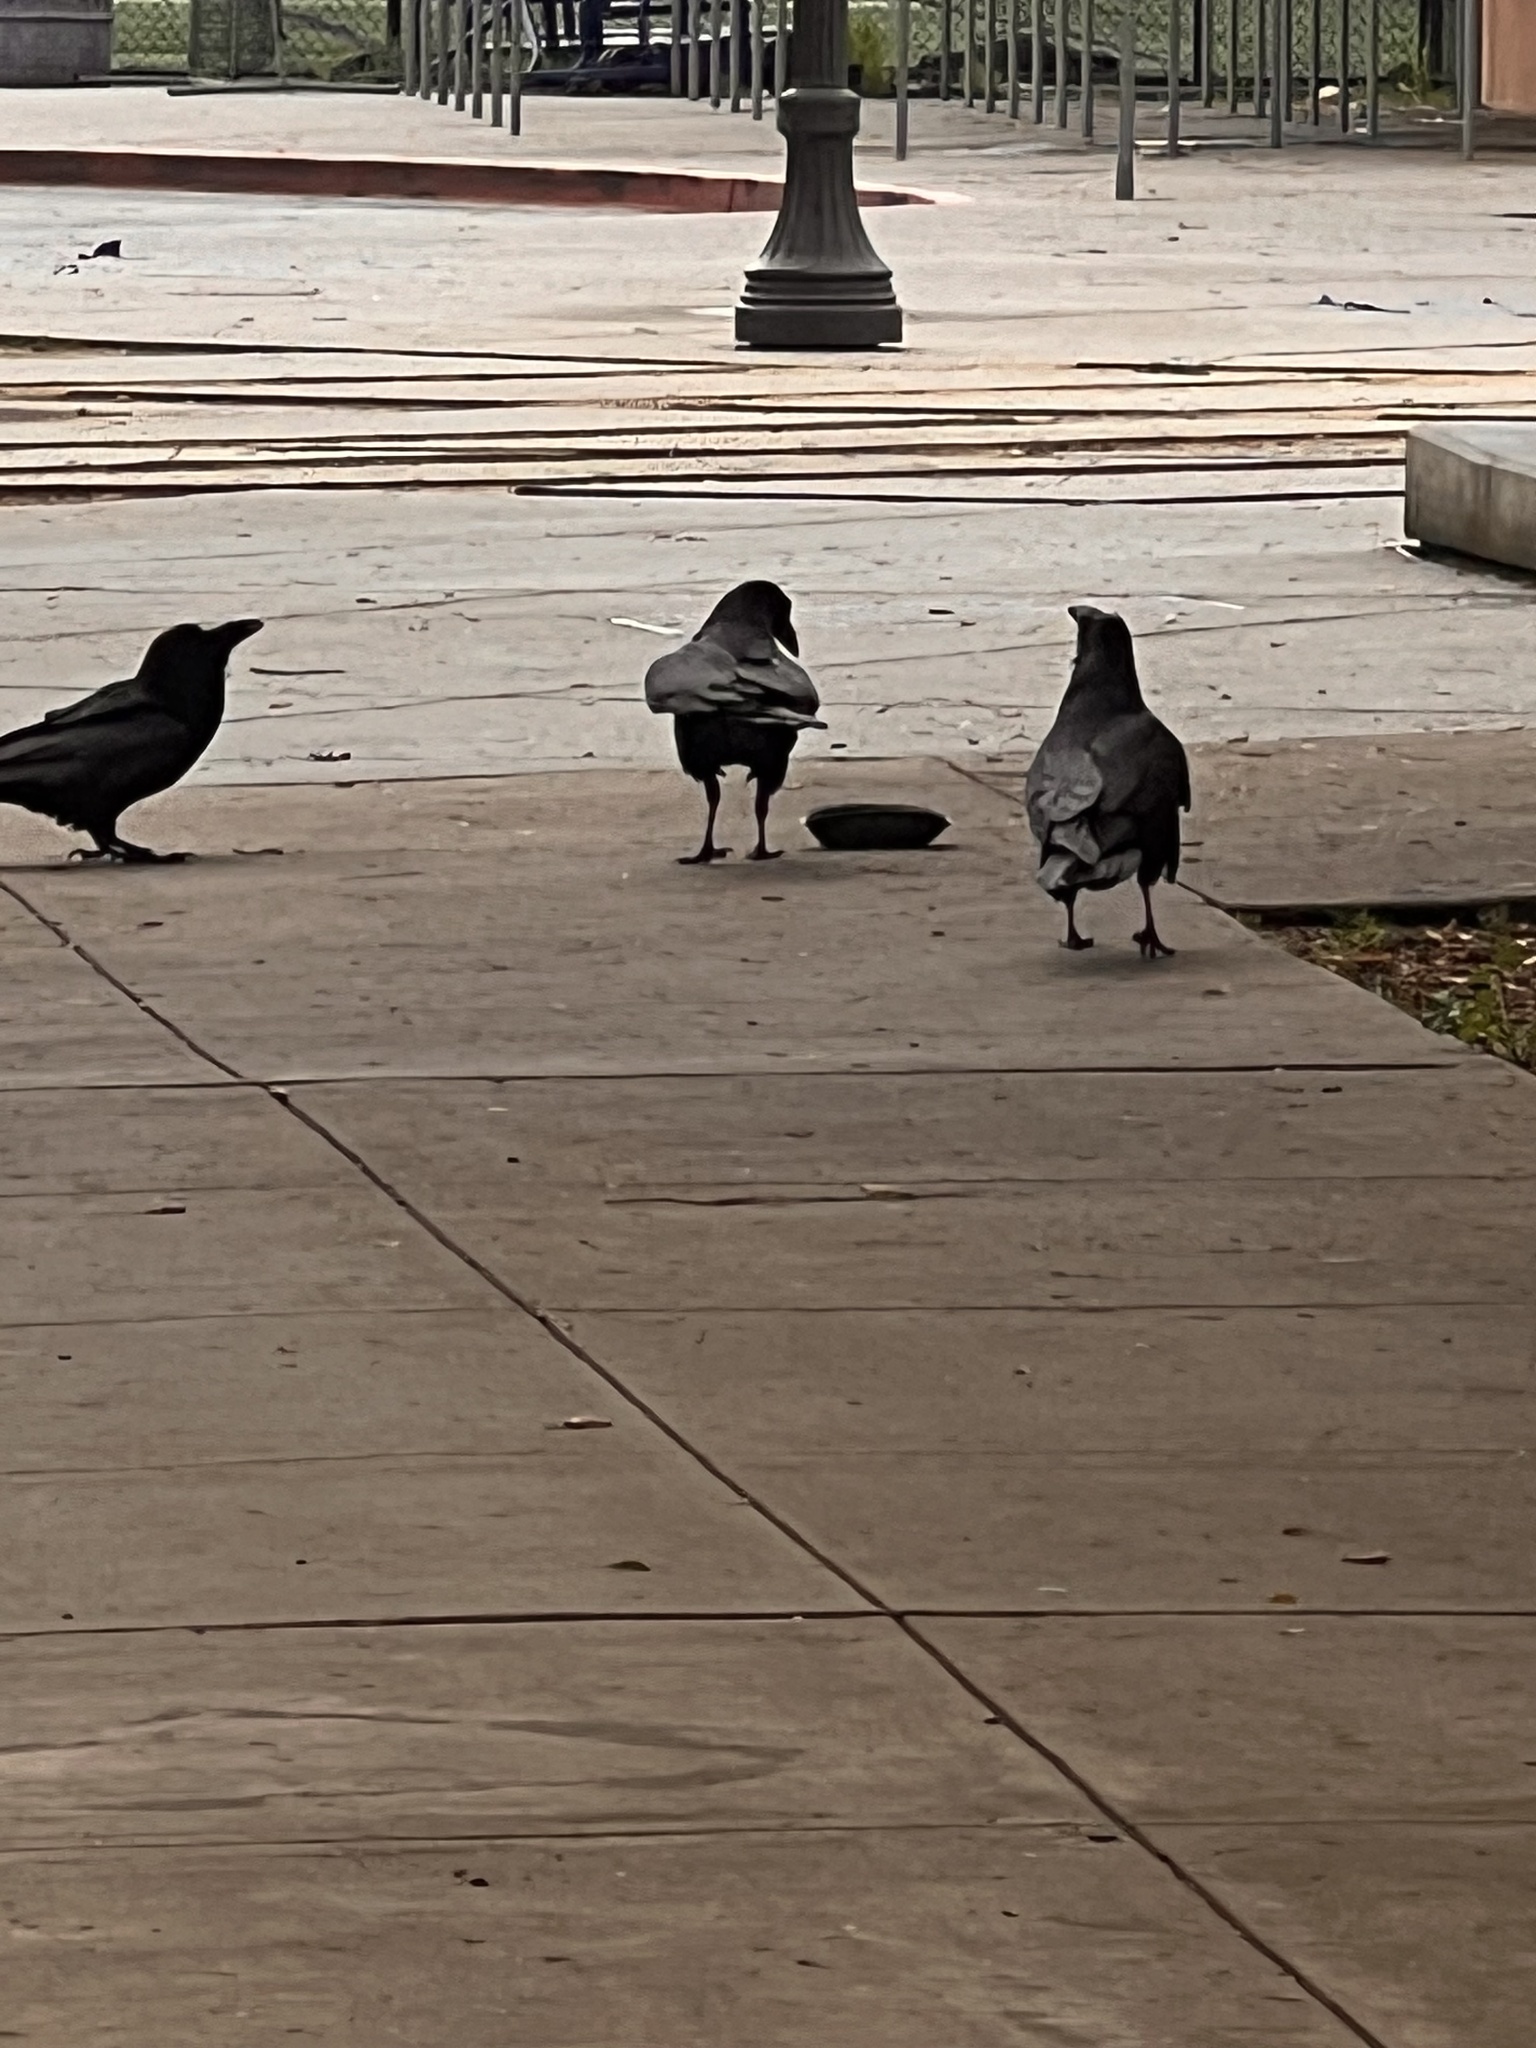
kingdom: Animalia
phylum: Chordata
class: Aves
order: Passeriformes
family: Corvidae
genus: Corvus
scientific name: Corvus corax
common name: Common raven
